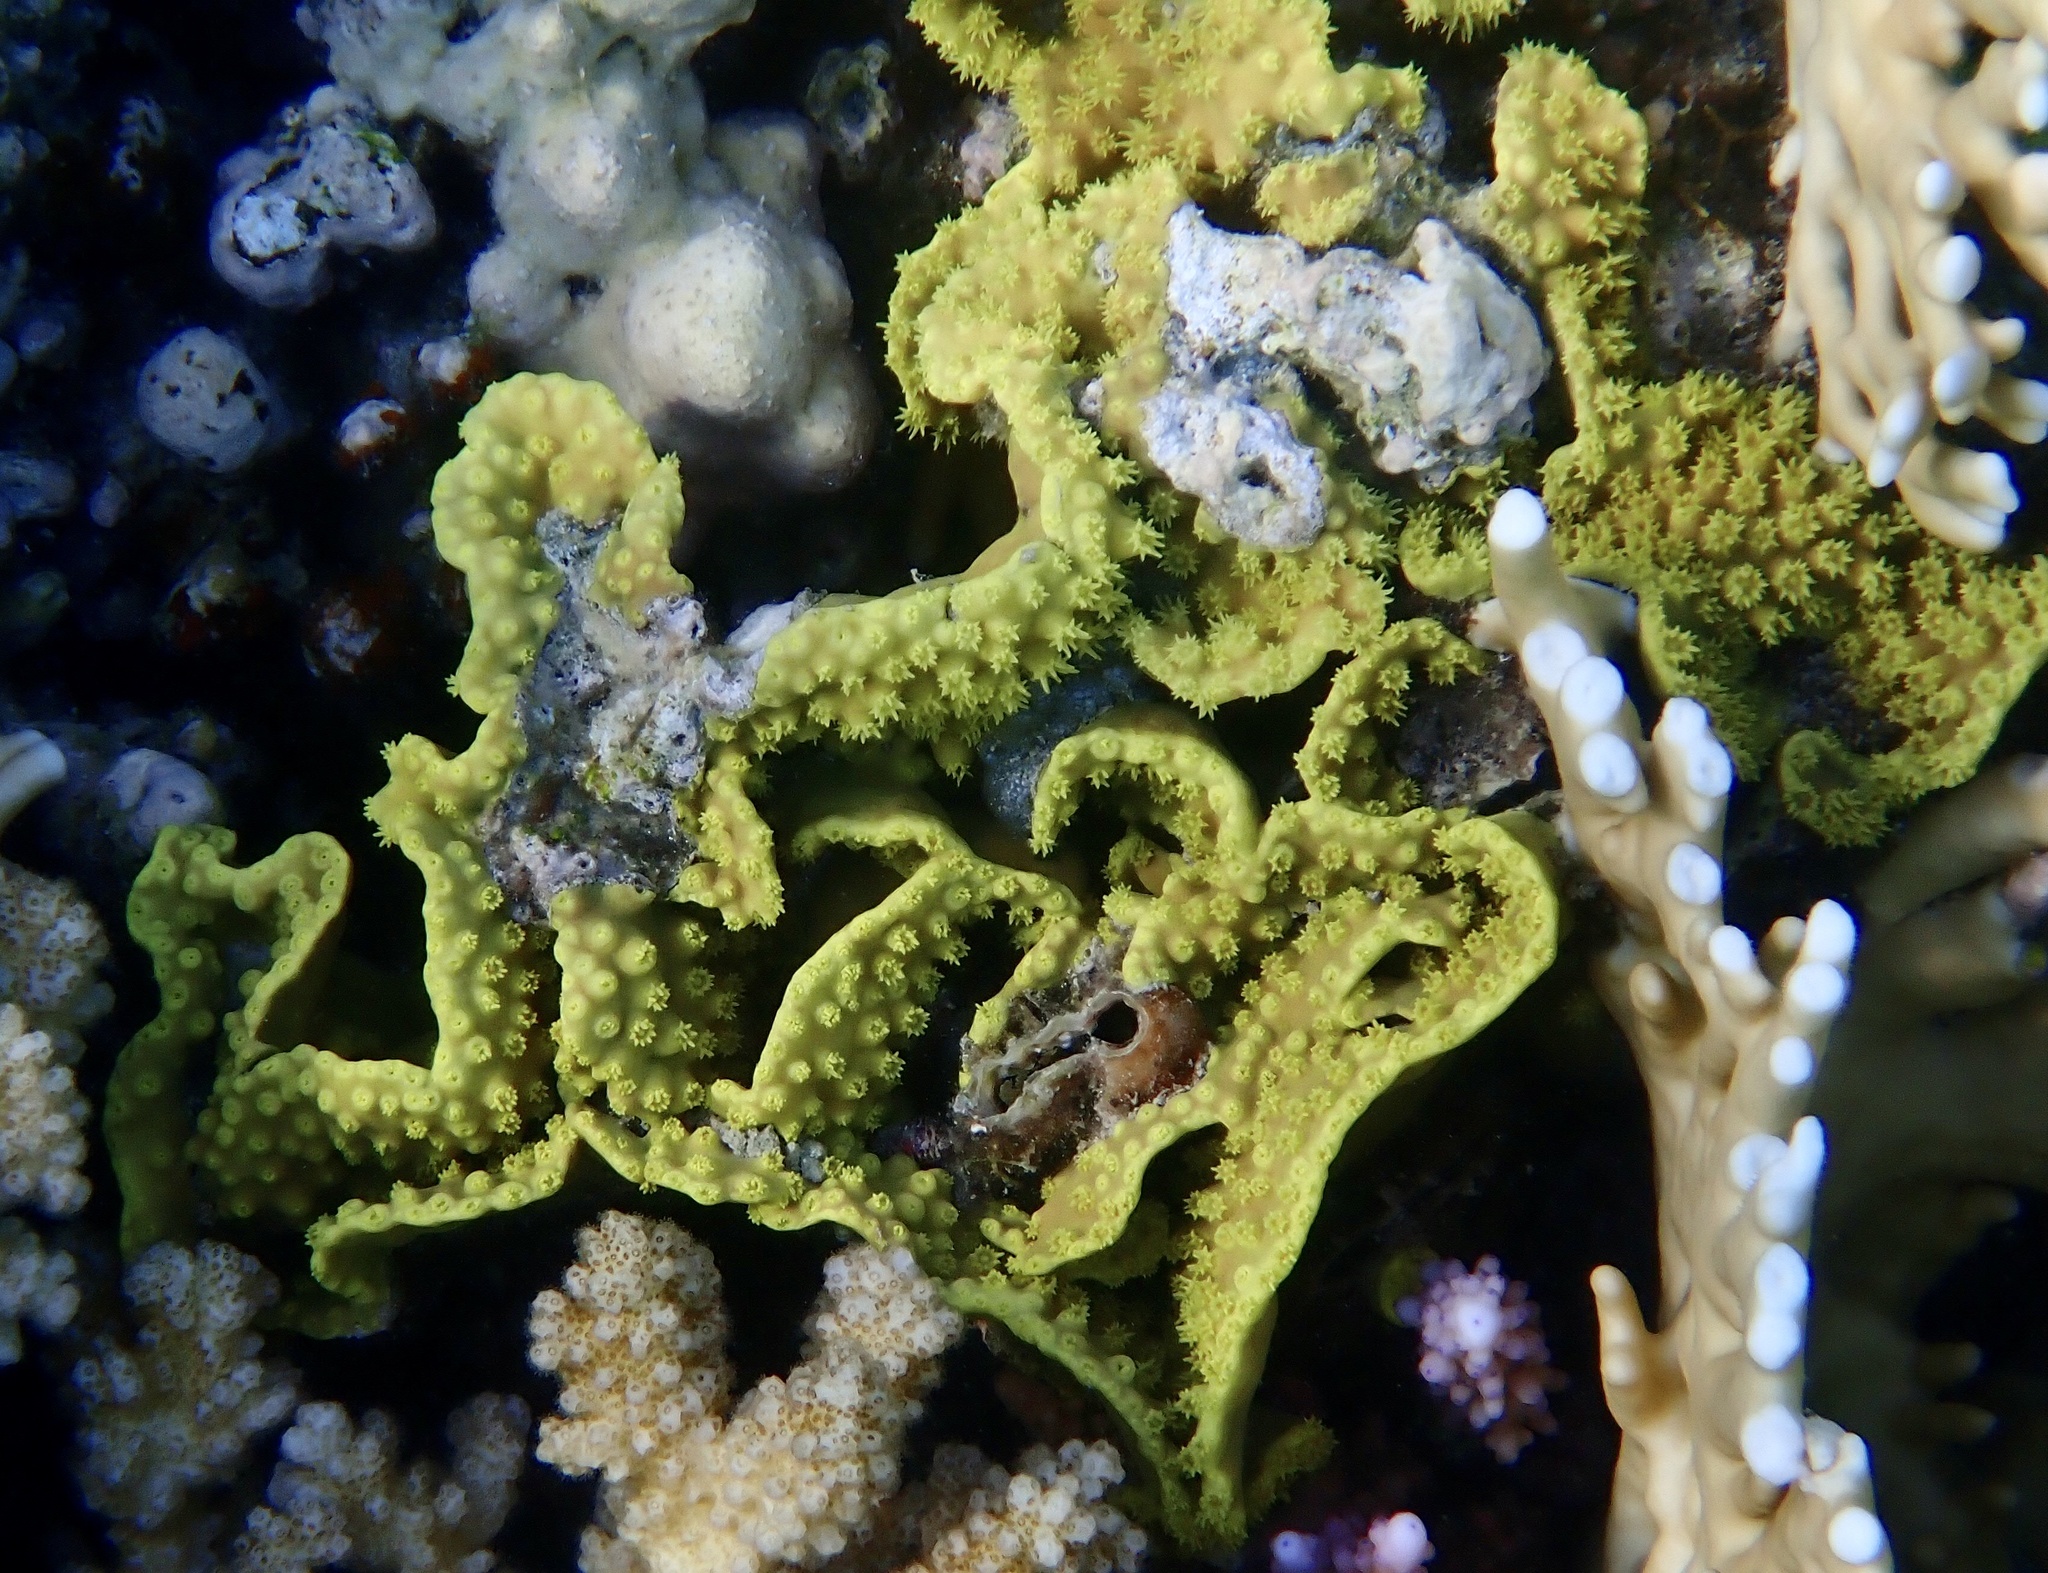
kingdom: Animalia
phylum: Cnidaria
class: Anthozoa
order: Scleractinia
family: Dendrophylliidae
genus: Turbinaria
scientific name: Turbinaria reniformis
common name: Disc coral
